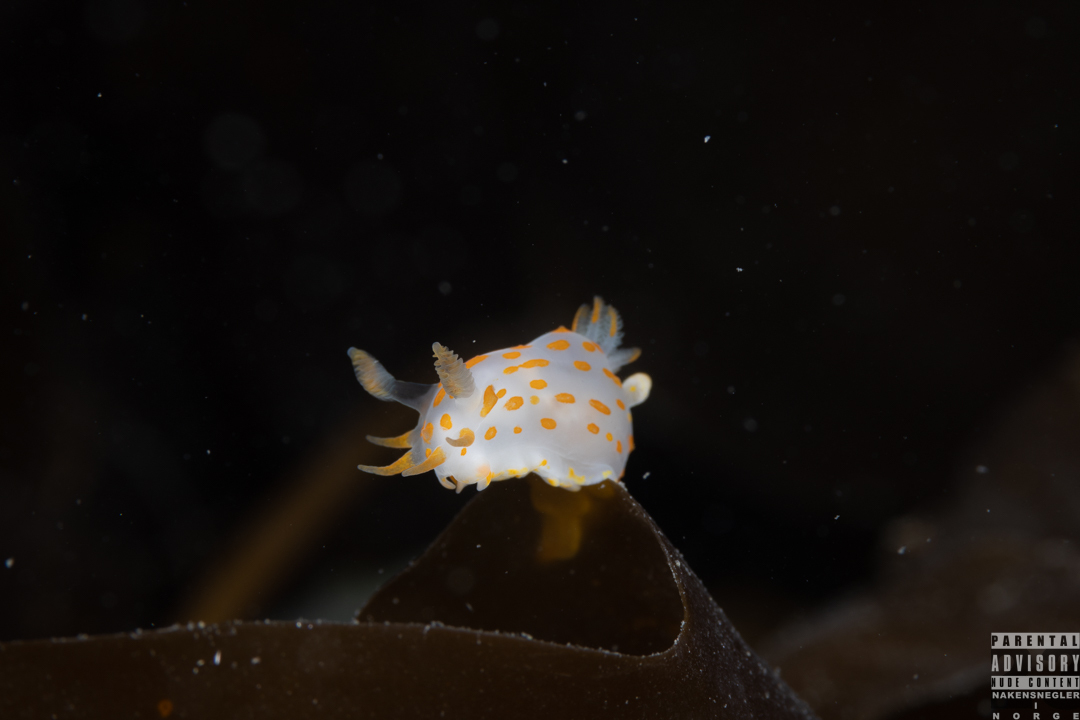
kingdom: Animalia
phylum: Mollusca
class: Gastropoda
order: Nudibranchia
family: Polyceridae
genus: Polycera
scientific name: Polycera quadrilineata
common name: Four-striped polycera
